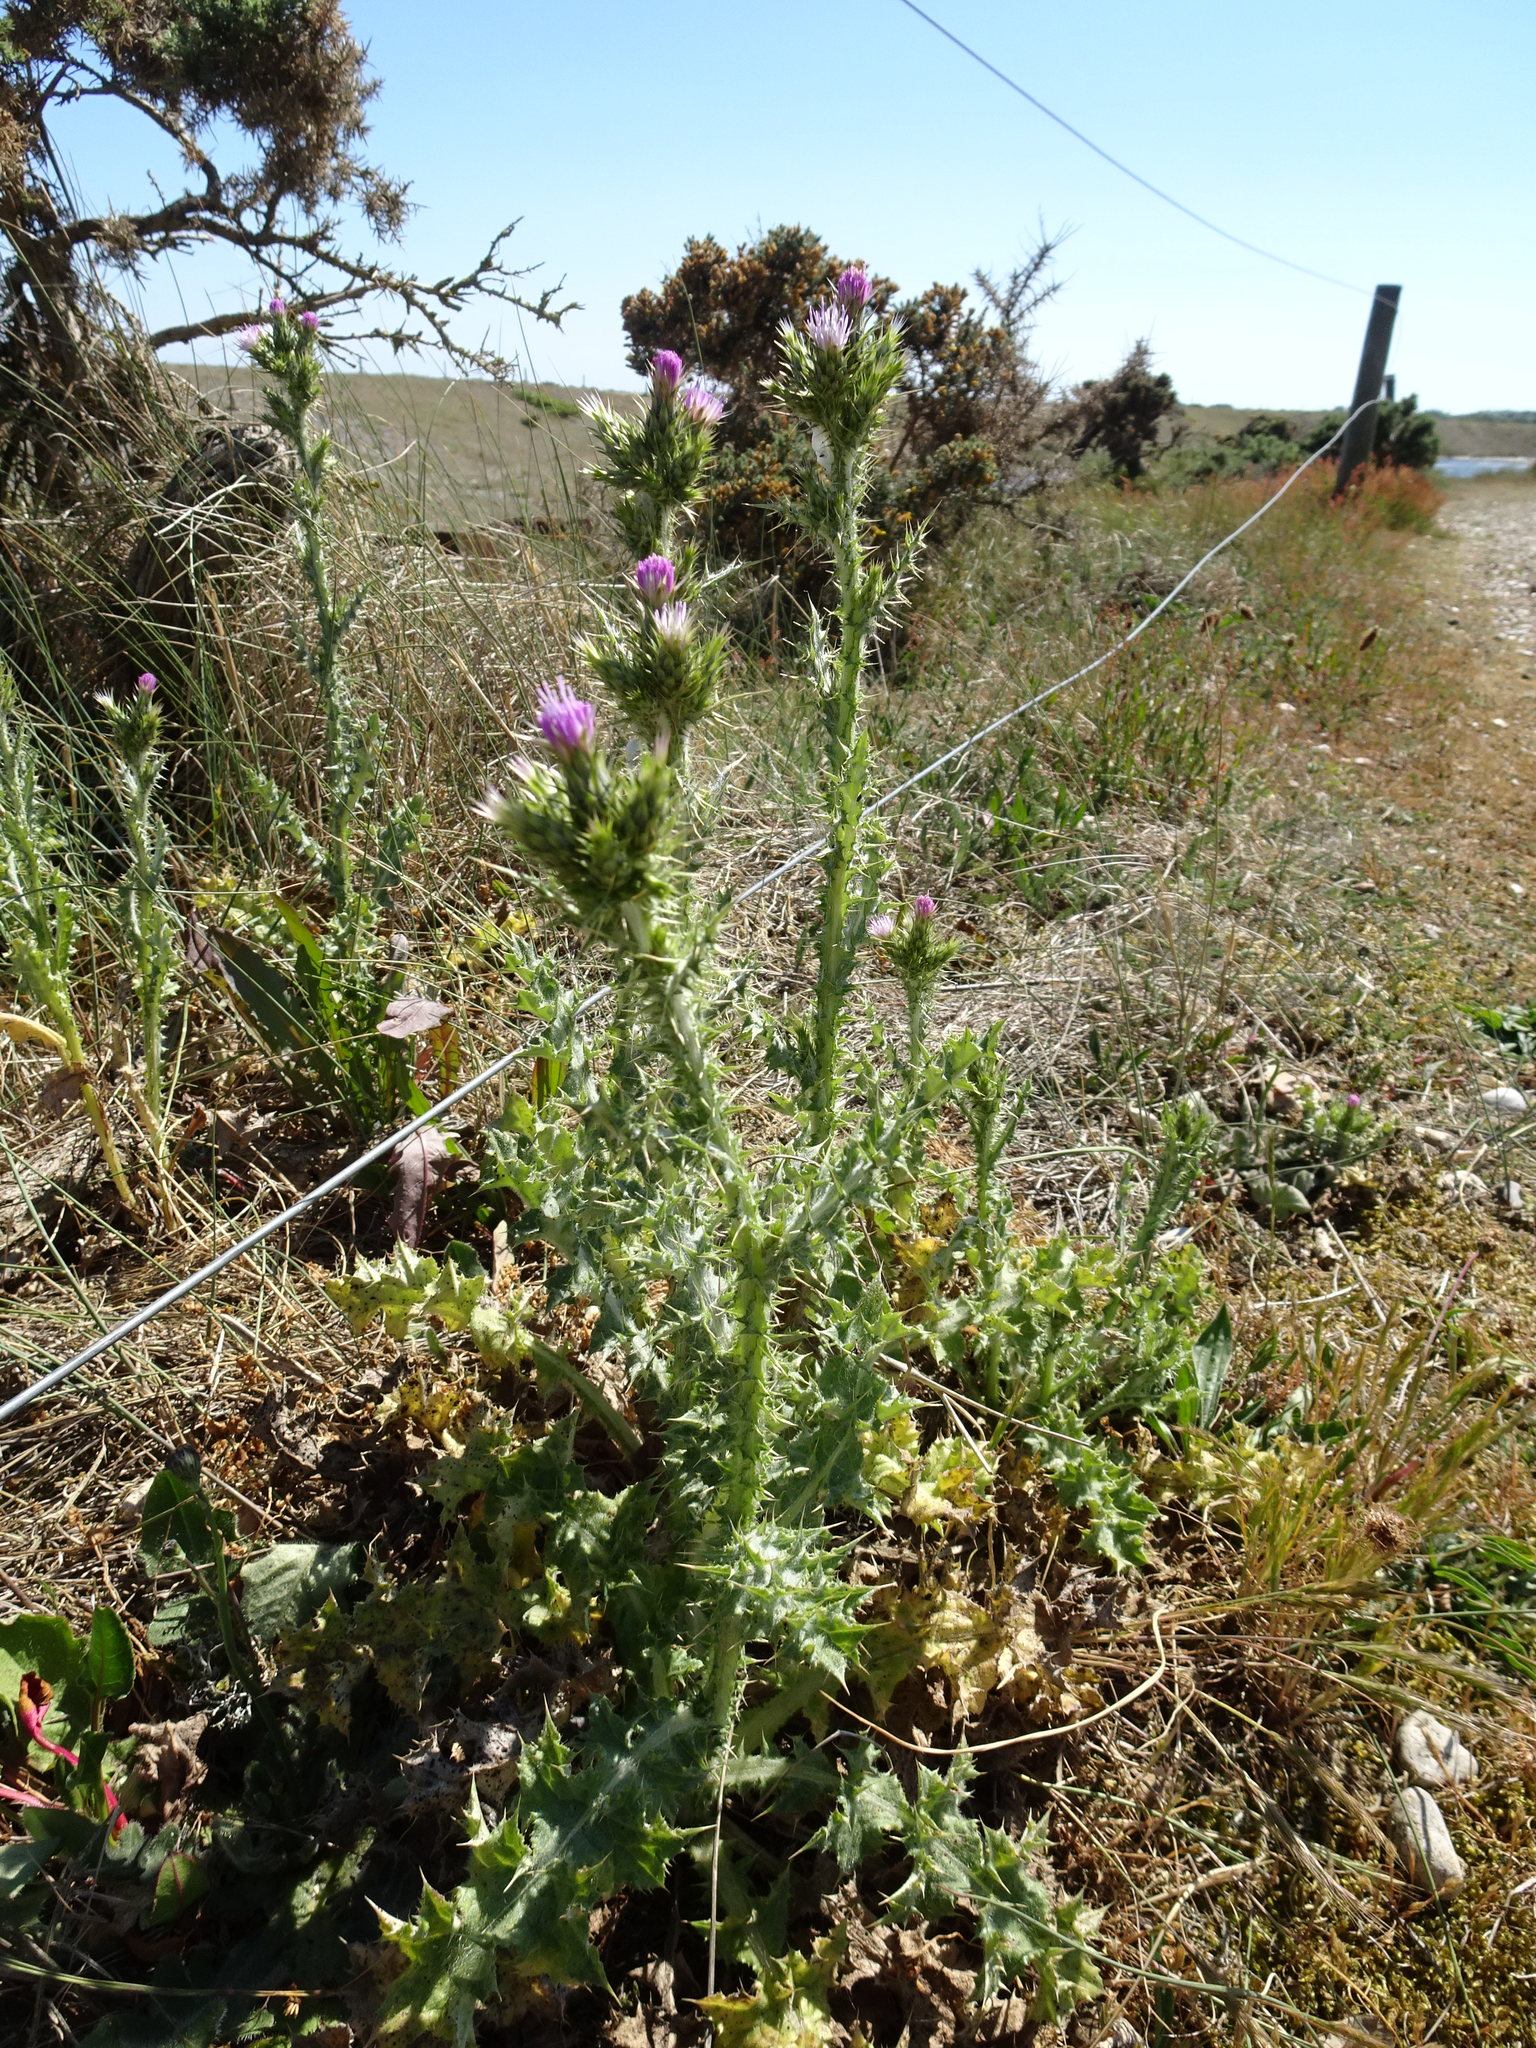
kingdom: Plantae
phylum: Tracheophyta
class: Magnoliopsida
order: Asterales
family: Asteraceae
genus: Carduus
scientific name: Carduus tenuiflorus
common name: Slender thistle
